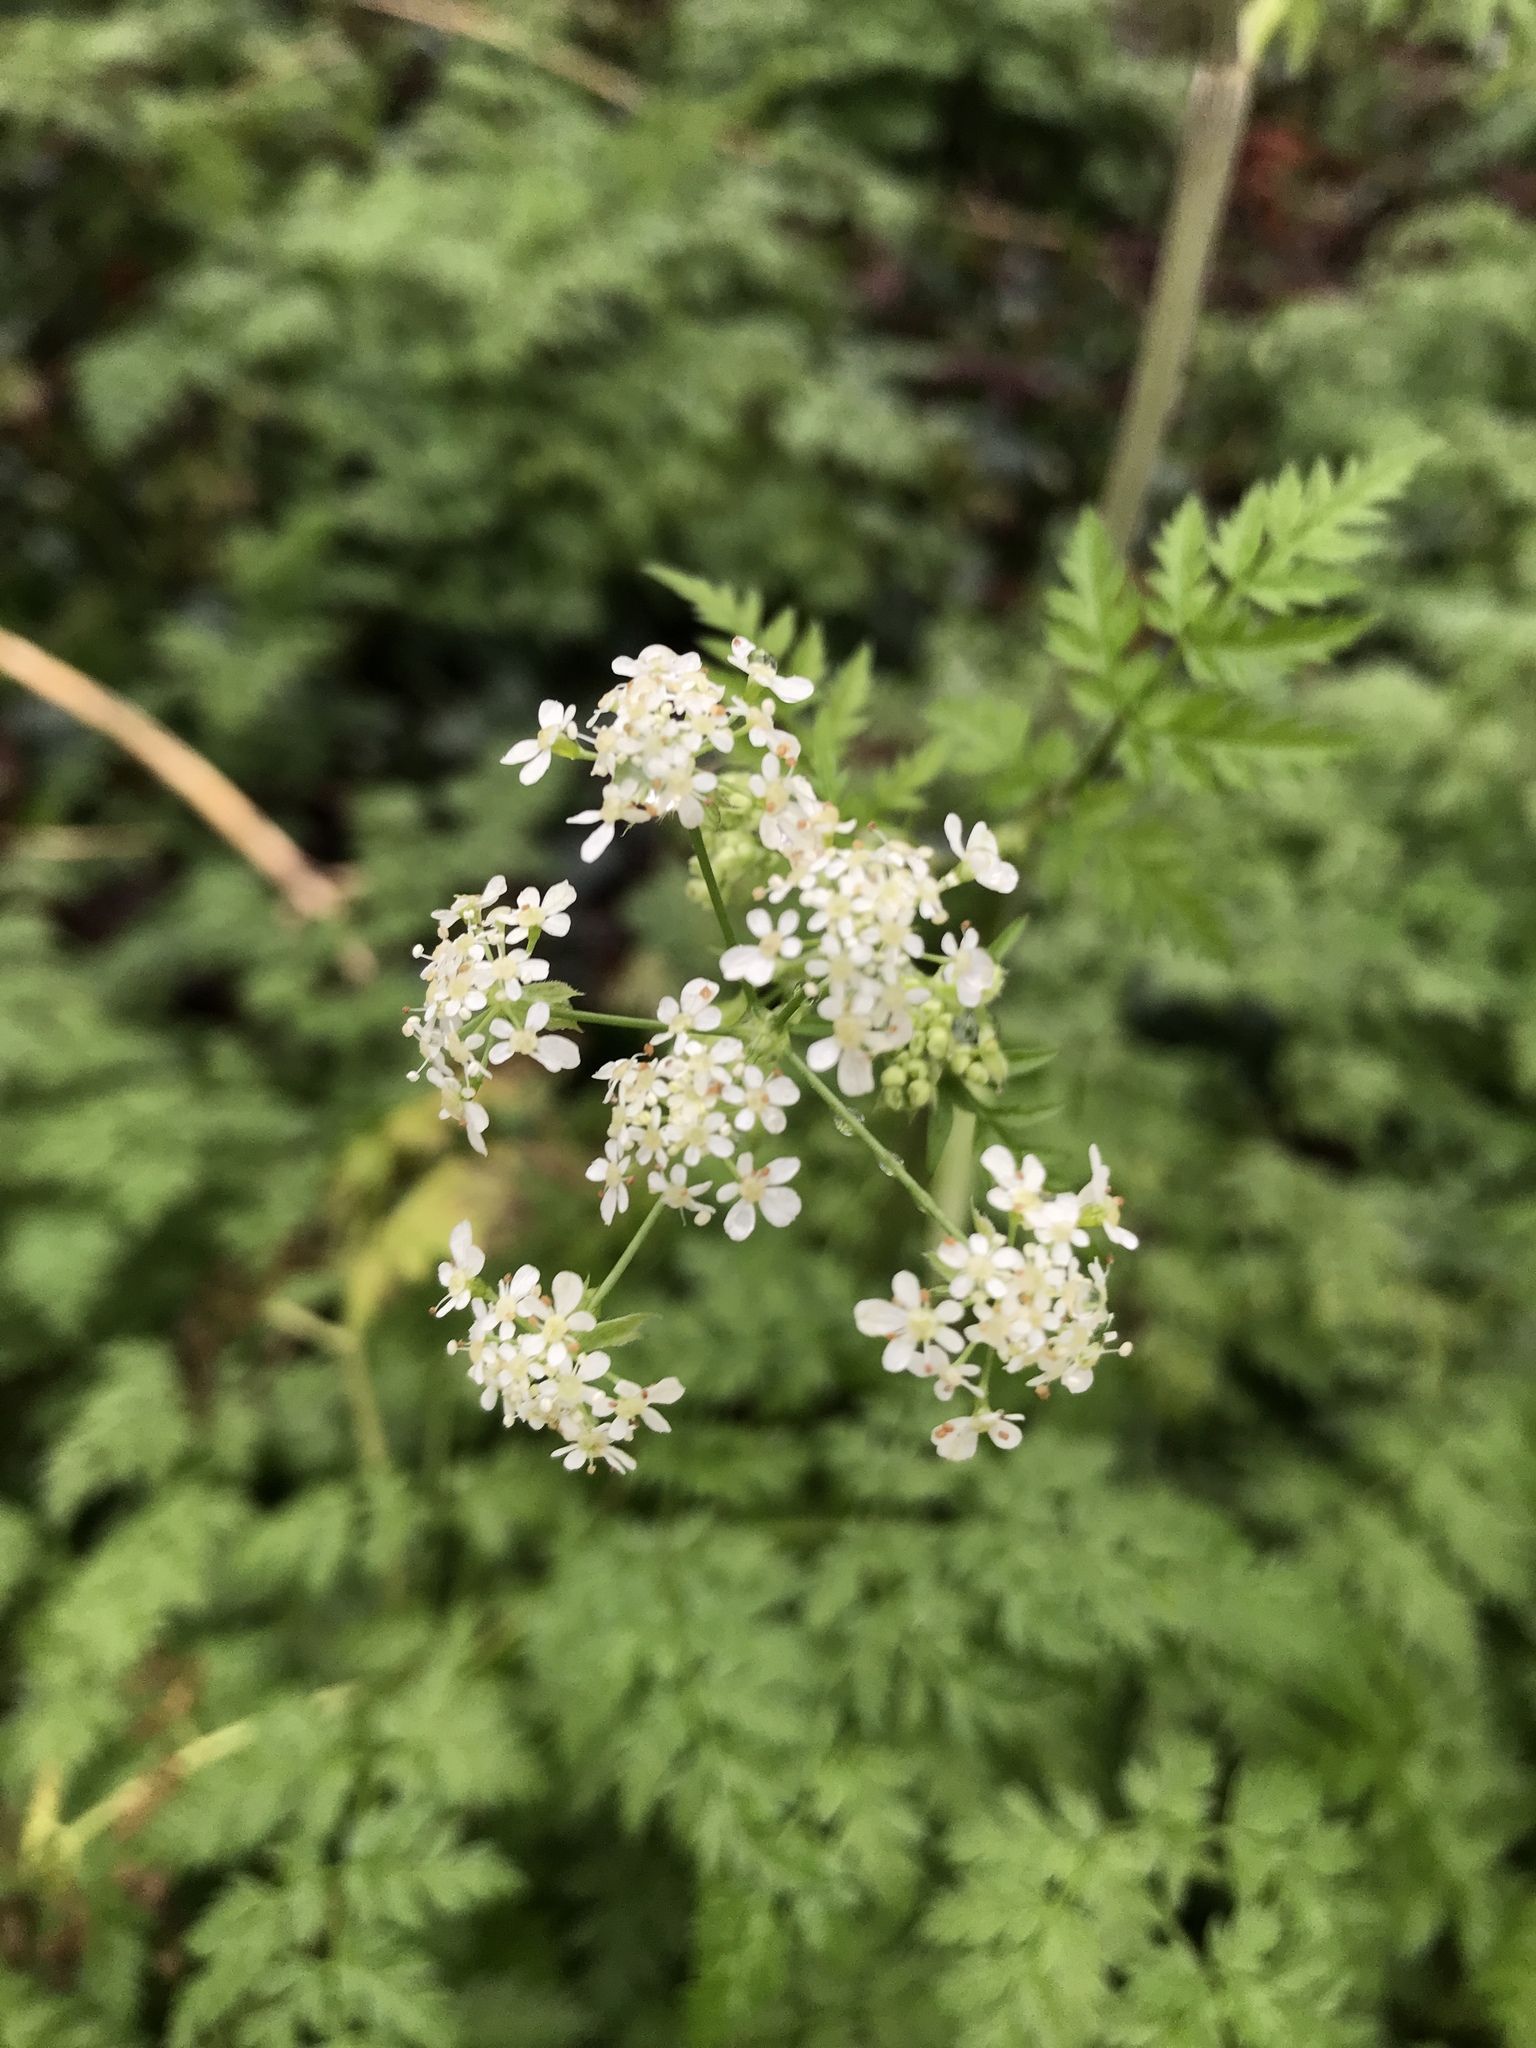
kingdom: Plantae
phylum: Tracheophyta
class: Magnoliopsida
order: Apiales
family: Apiaceae
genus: Anthriscus
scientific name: Anthriscus sylvestris
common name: Cow parsley
